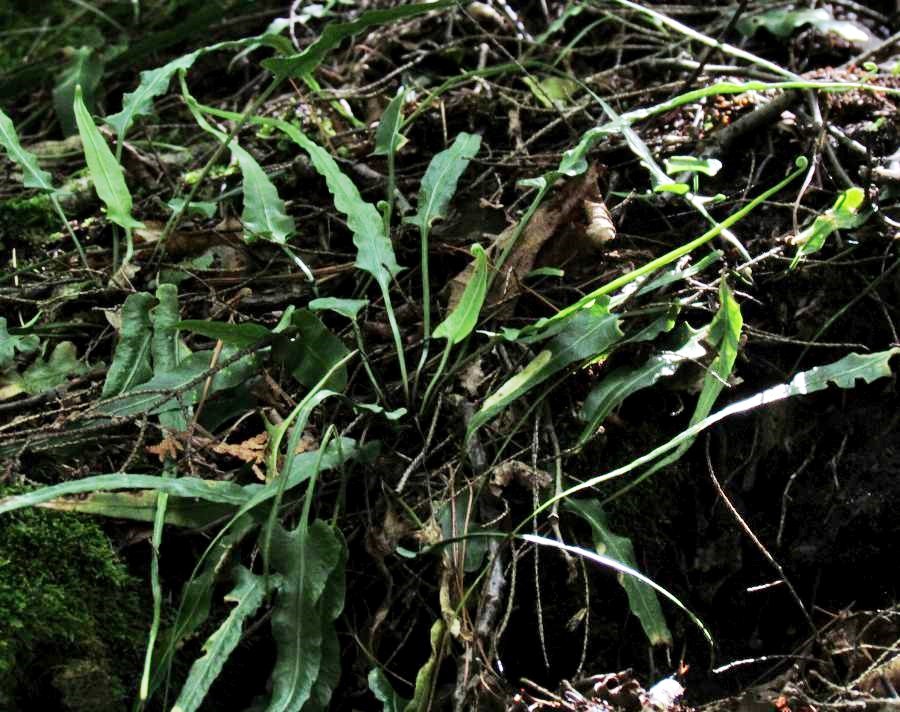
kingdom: Plantae
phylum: Tracheophyta
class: Polypodiopsida
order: Polypodiales
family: Aspleniaceae
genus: Asplenium
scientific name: Asplenium rhizophyllum
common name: Walking fern
